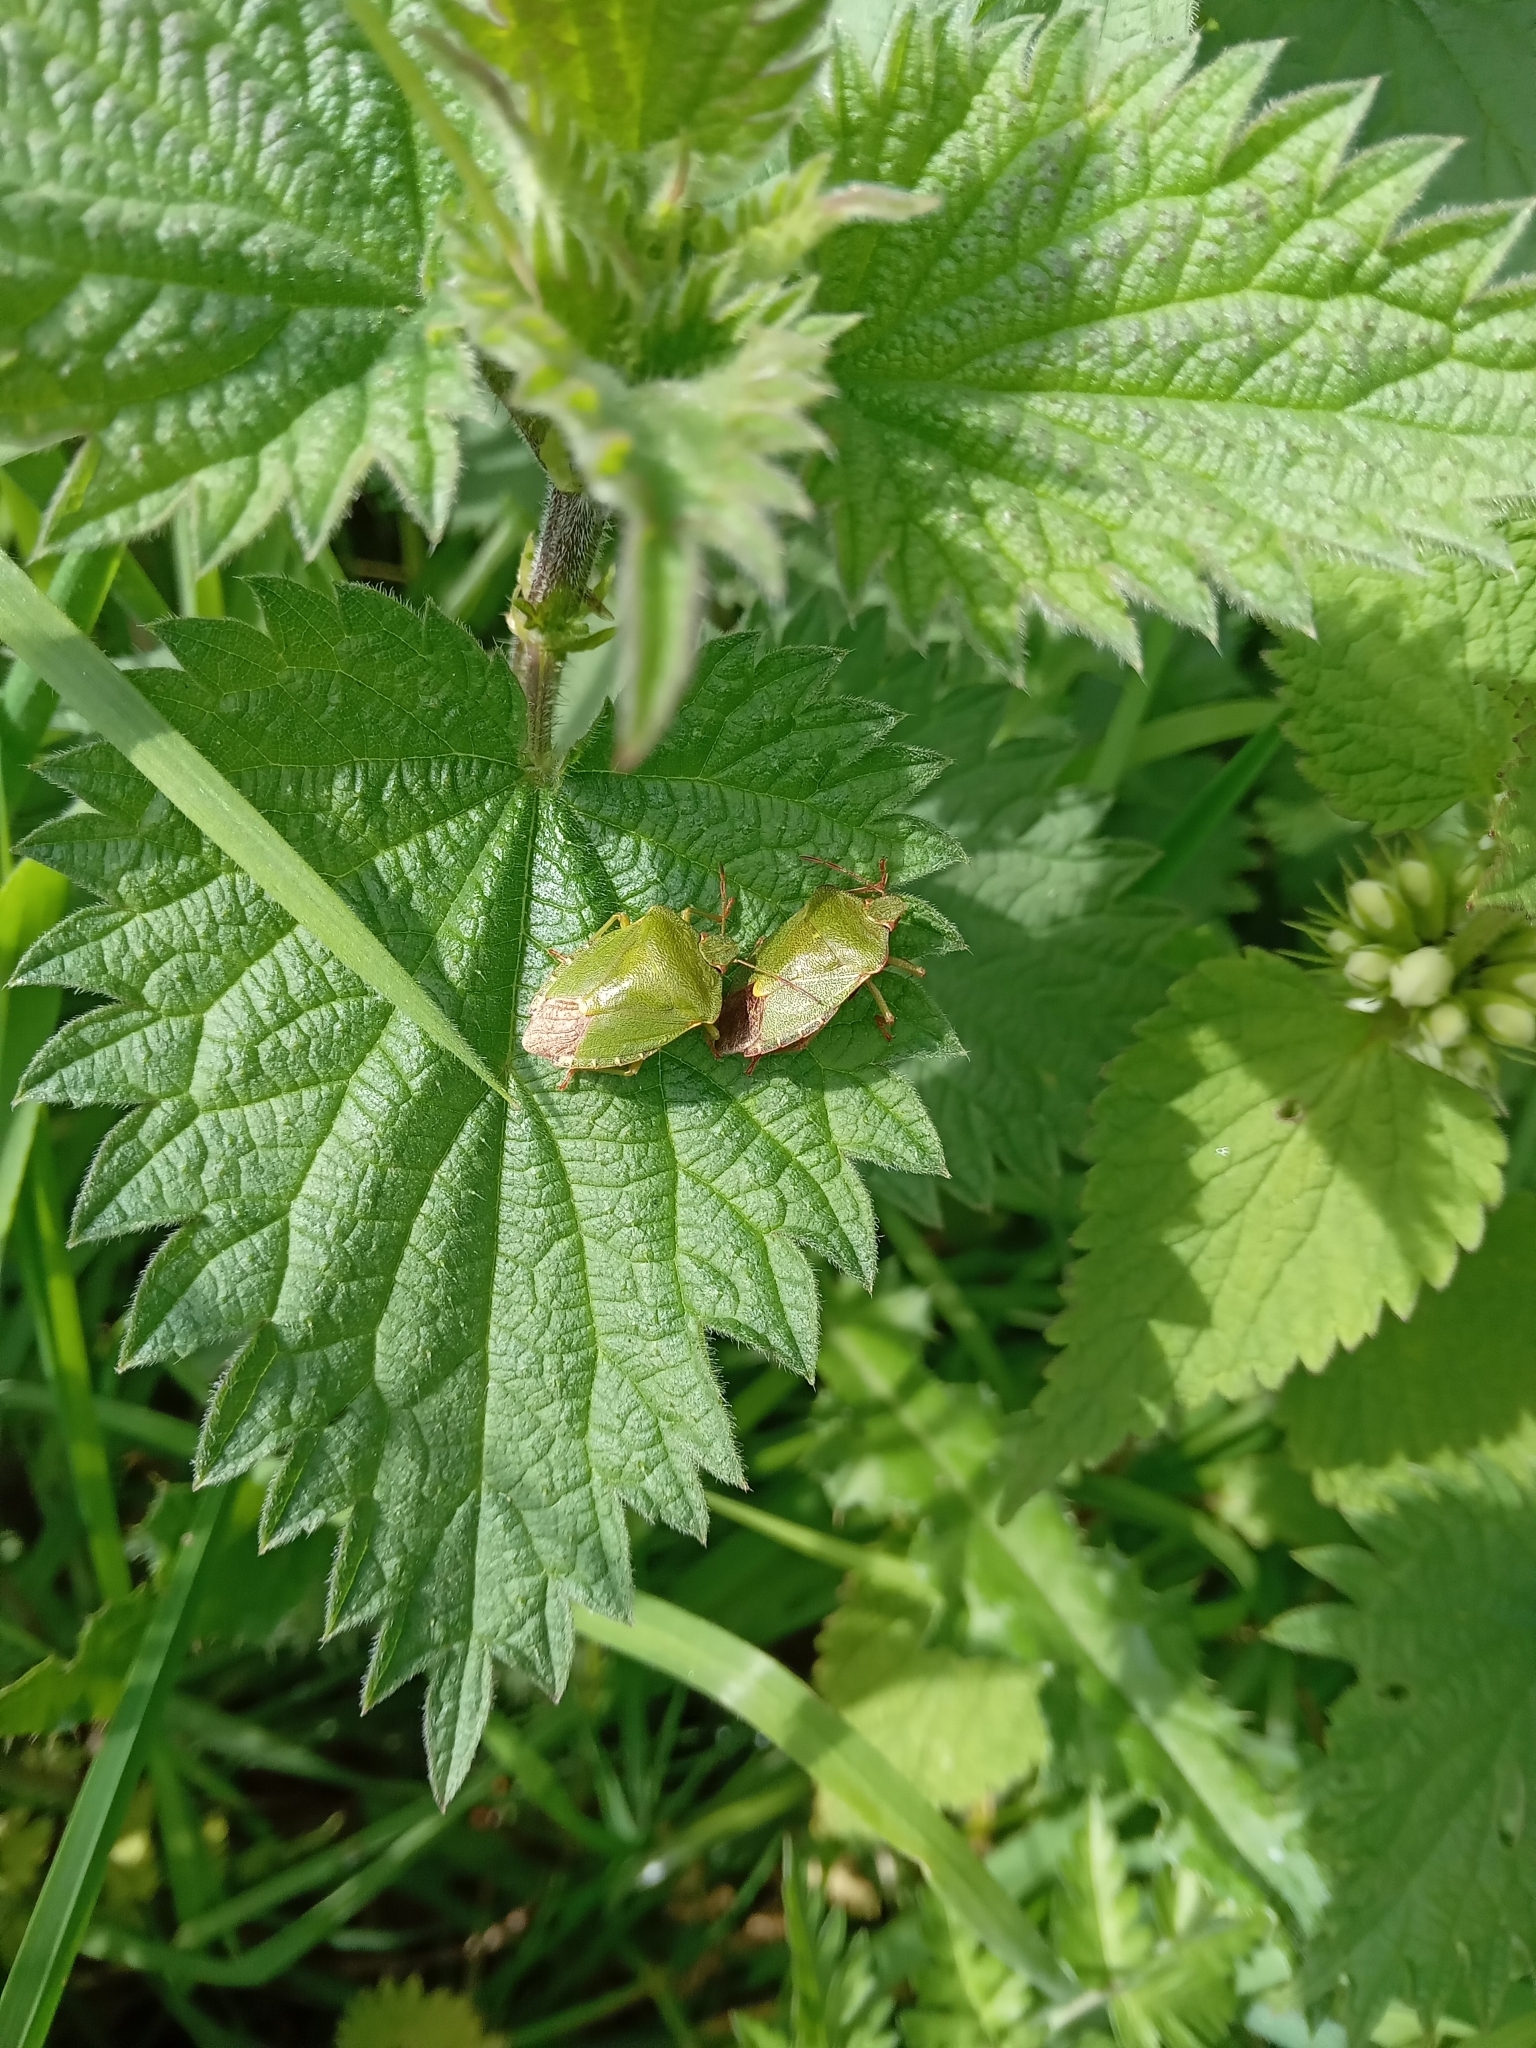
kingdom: Animalia
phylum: Arthropoda
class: Insecta
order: Hemiptera
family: Pentatomidae
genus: Palomena
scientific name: Palomena prasina
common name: Green shieldbug
